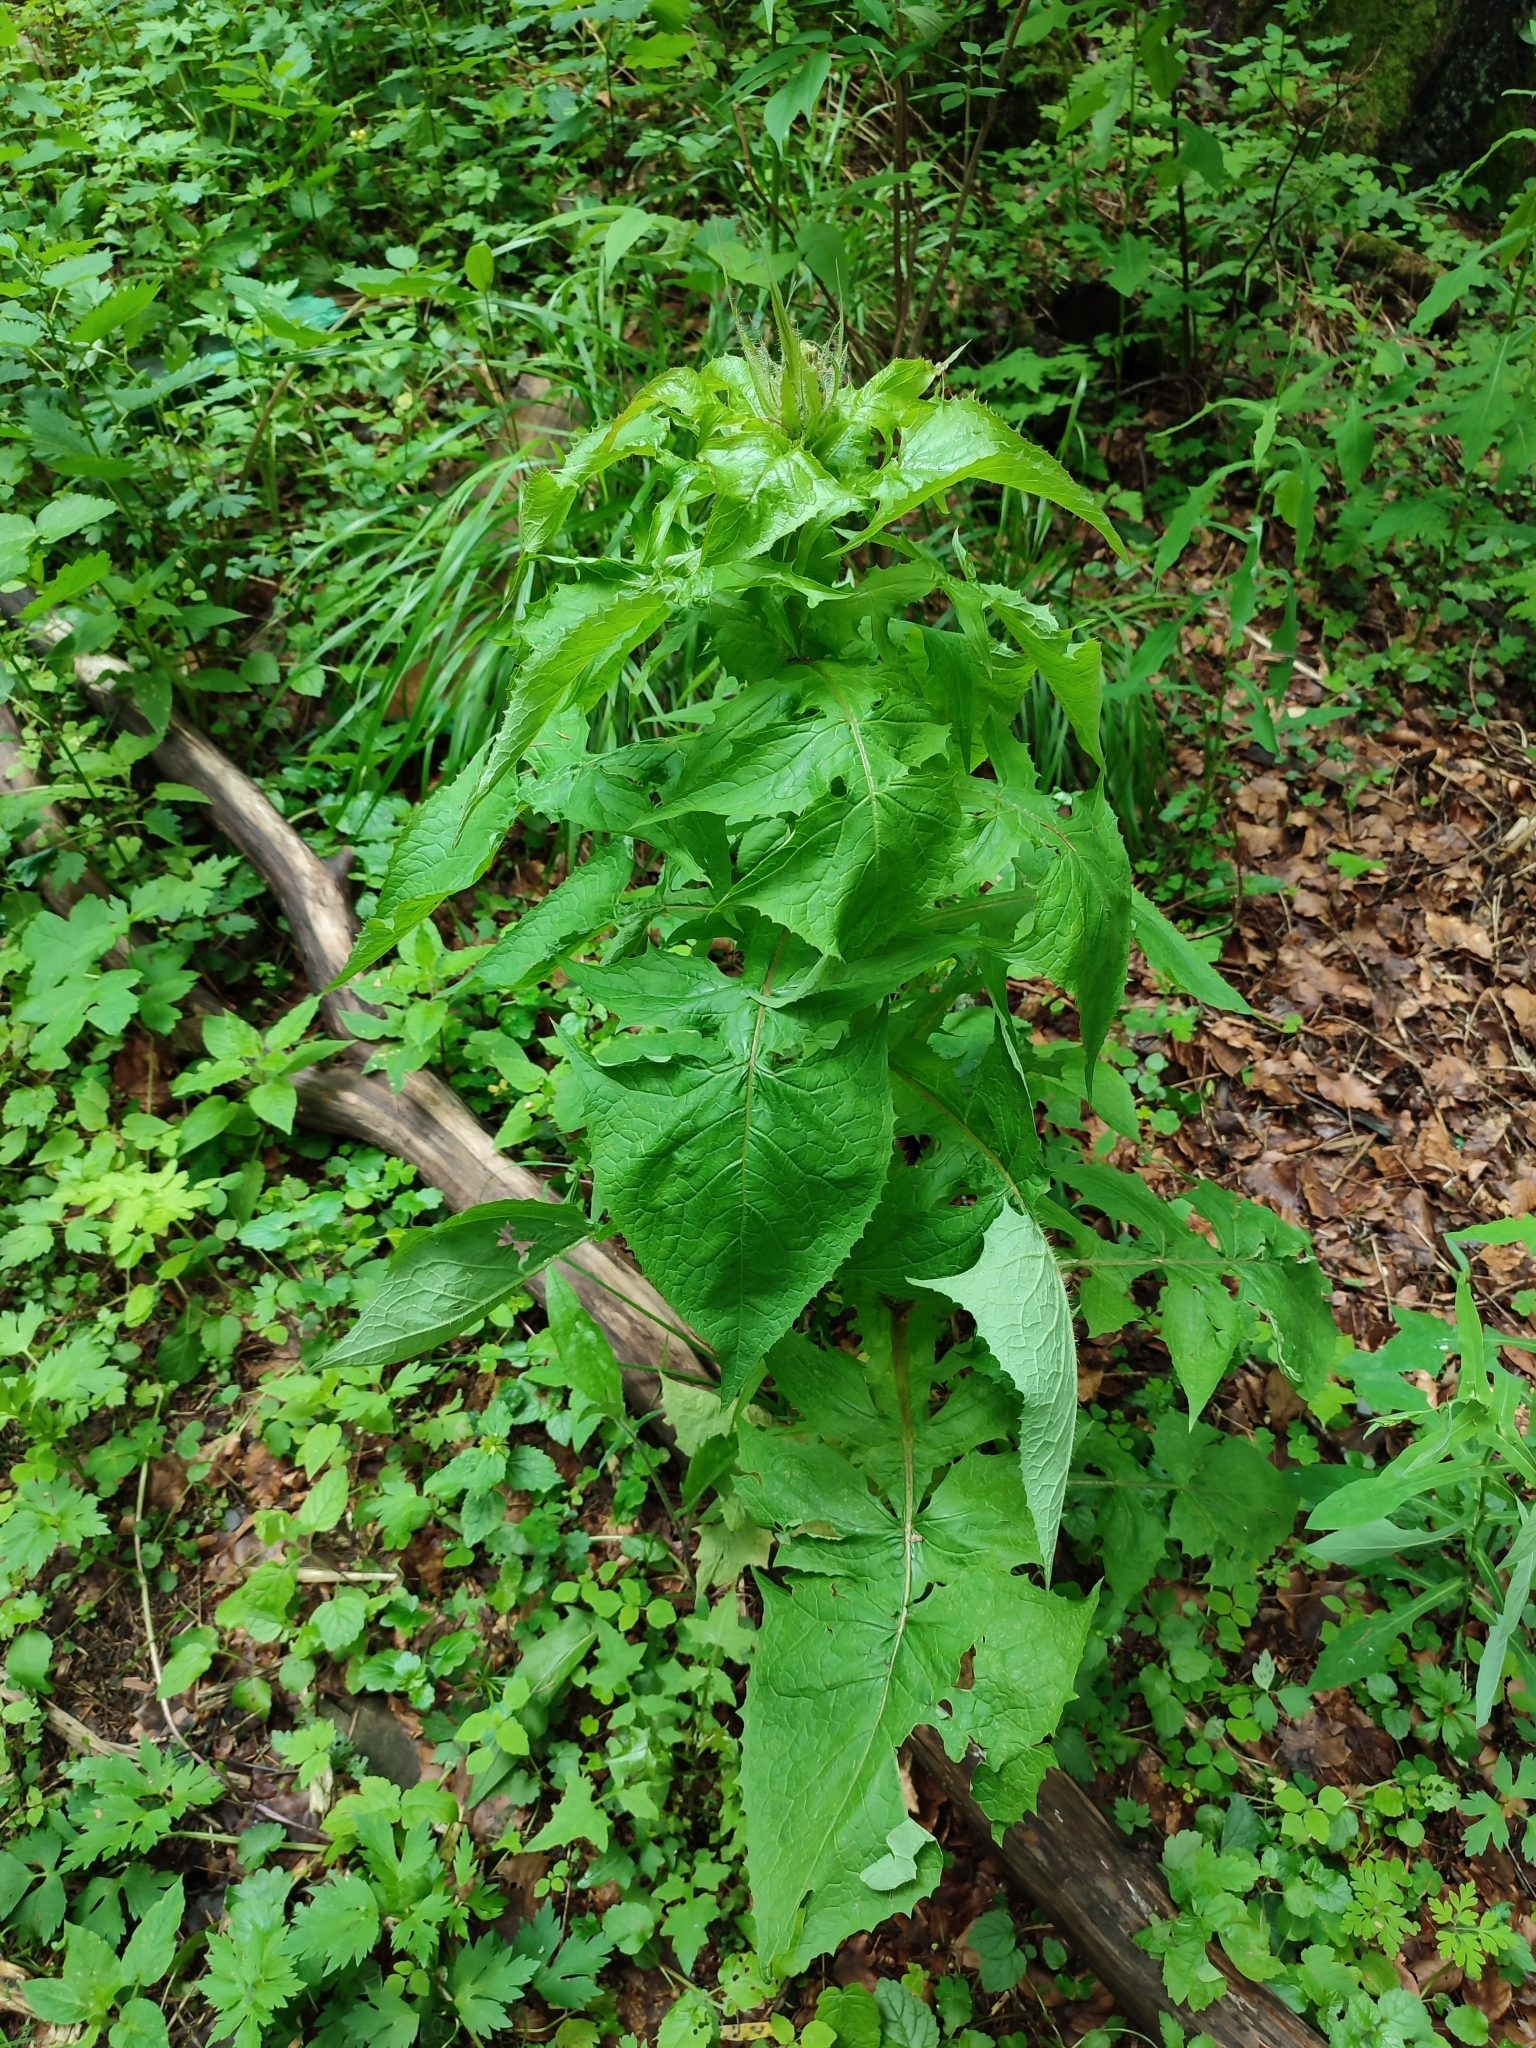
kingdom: Plantae
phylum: Tracheophyta
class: Magnoliopsida
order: Asterales
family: Asteraceae
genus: Cicerbita
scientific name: Cicerbita alpina
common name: Alpine blue-sow-thistle
